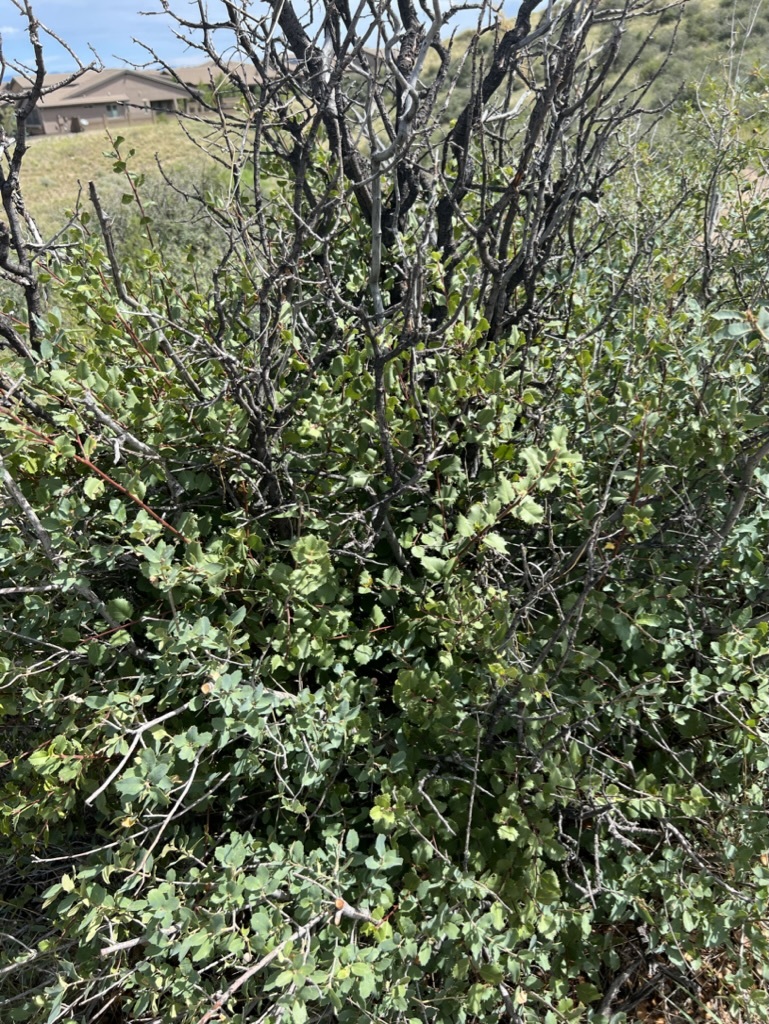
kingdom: Plantae
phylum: Tracheophyta
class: Magnoliopsida
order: Rosales
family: Rhamnaceae
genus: Endotropis
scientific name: Endotropis crocea
